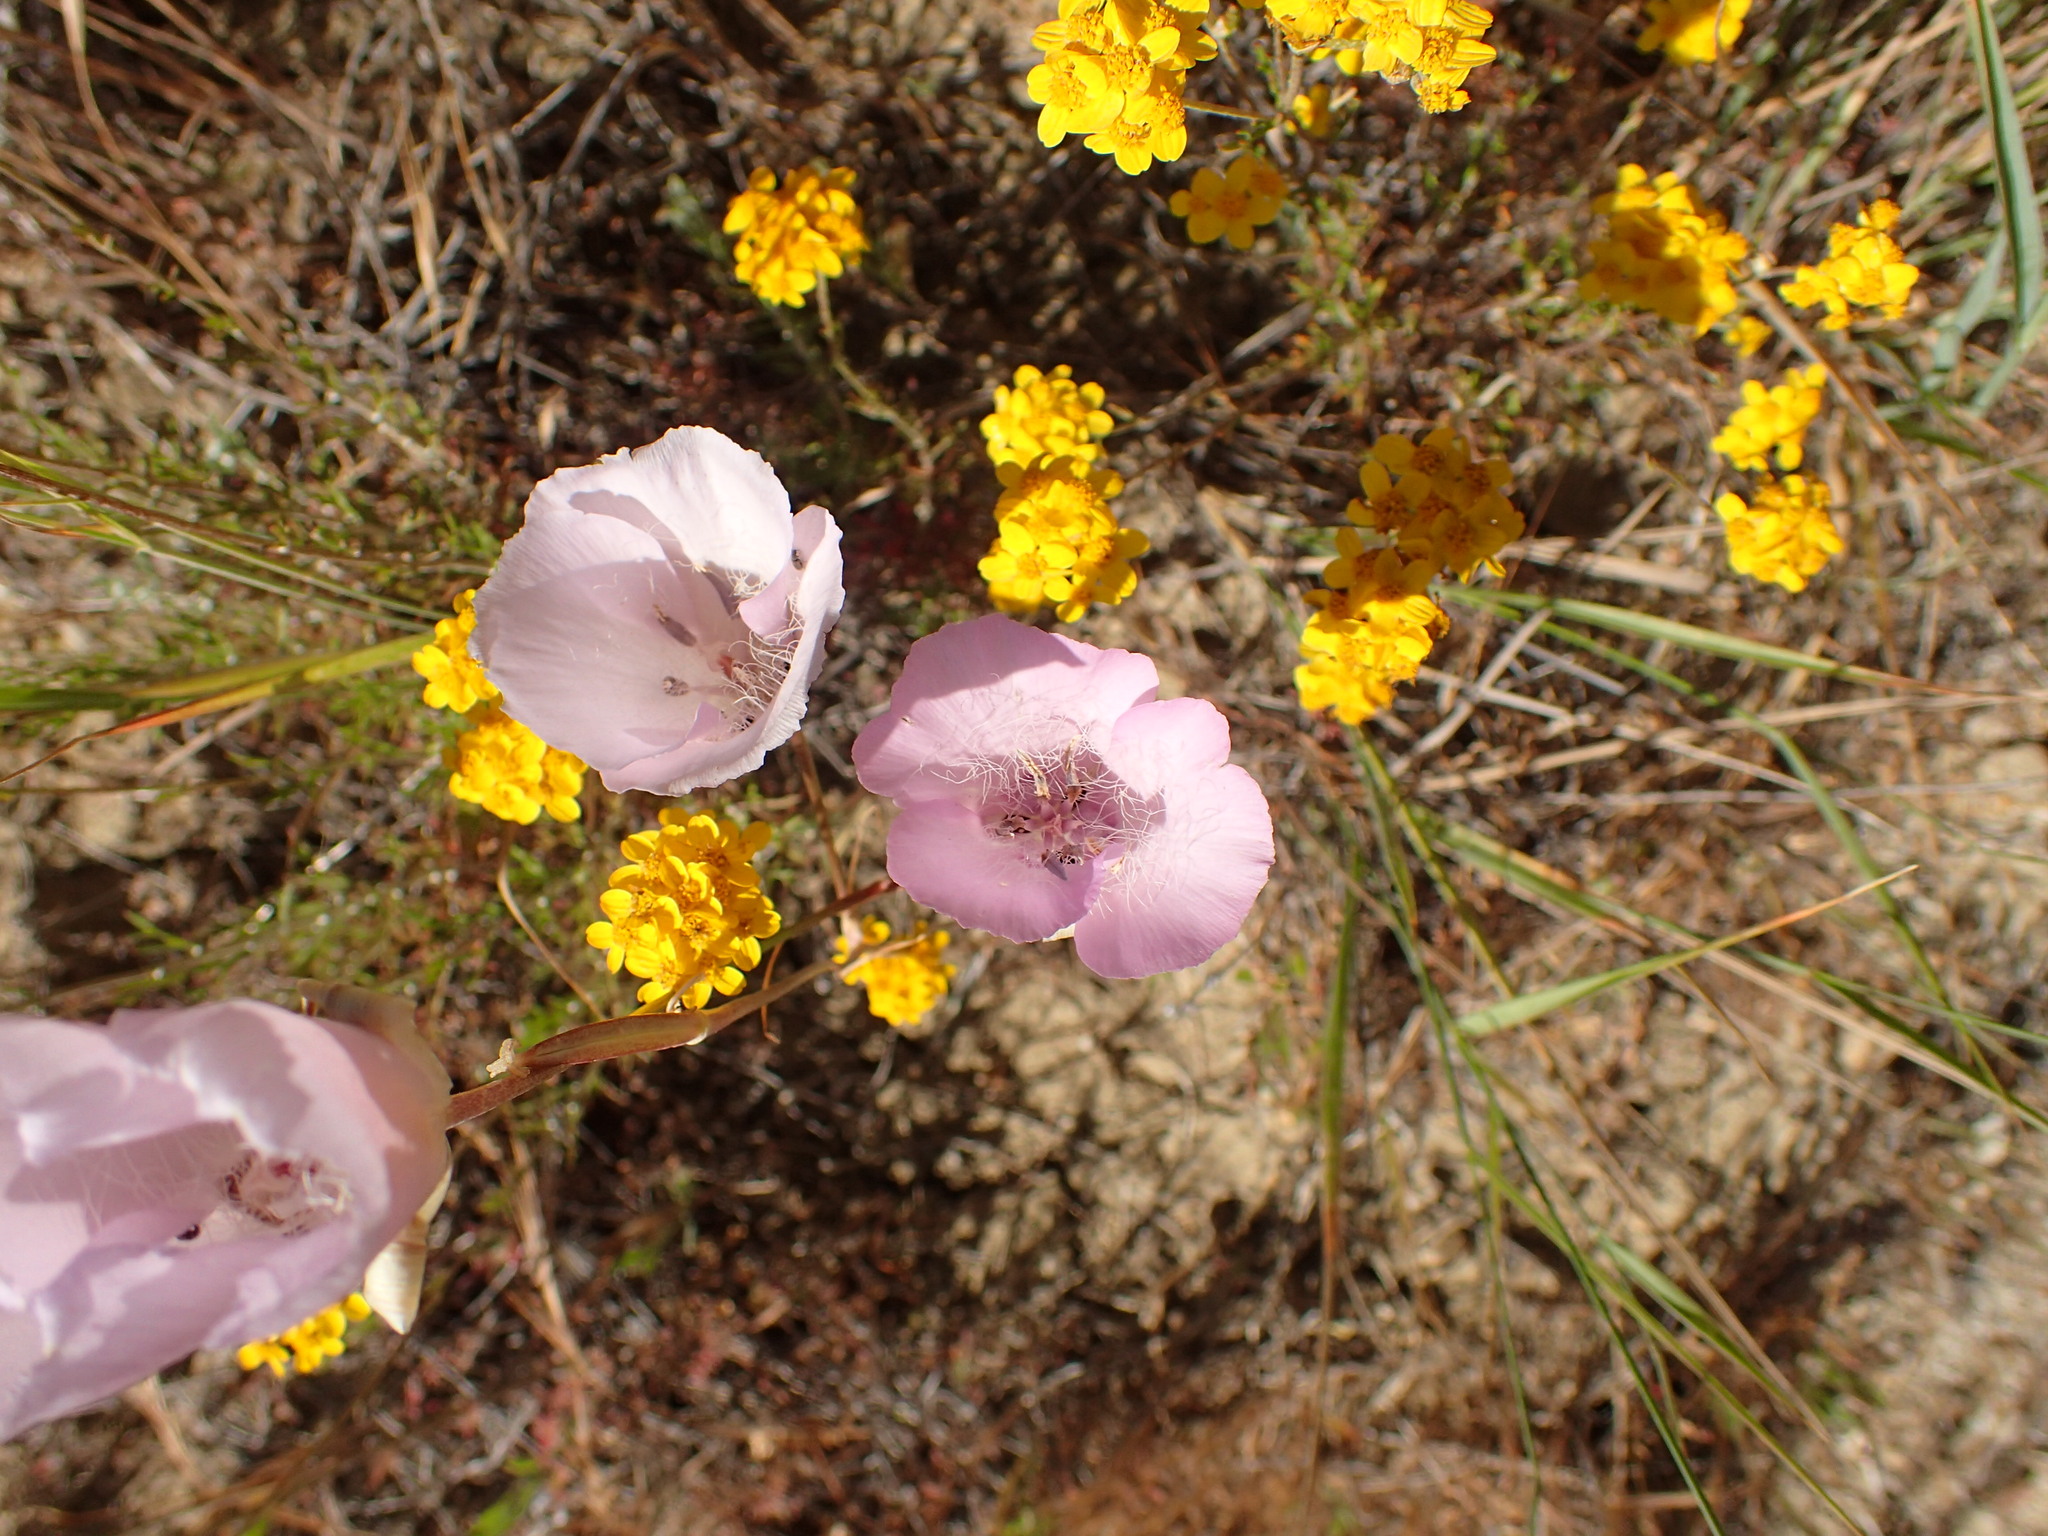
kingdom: Plantae
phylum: Tracheophyta
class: Liliopsida
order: Liliales
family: Liliaceae
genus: Calochortus
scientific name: Calochortus splendens
